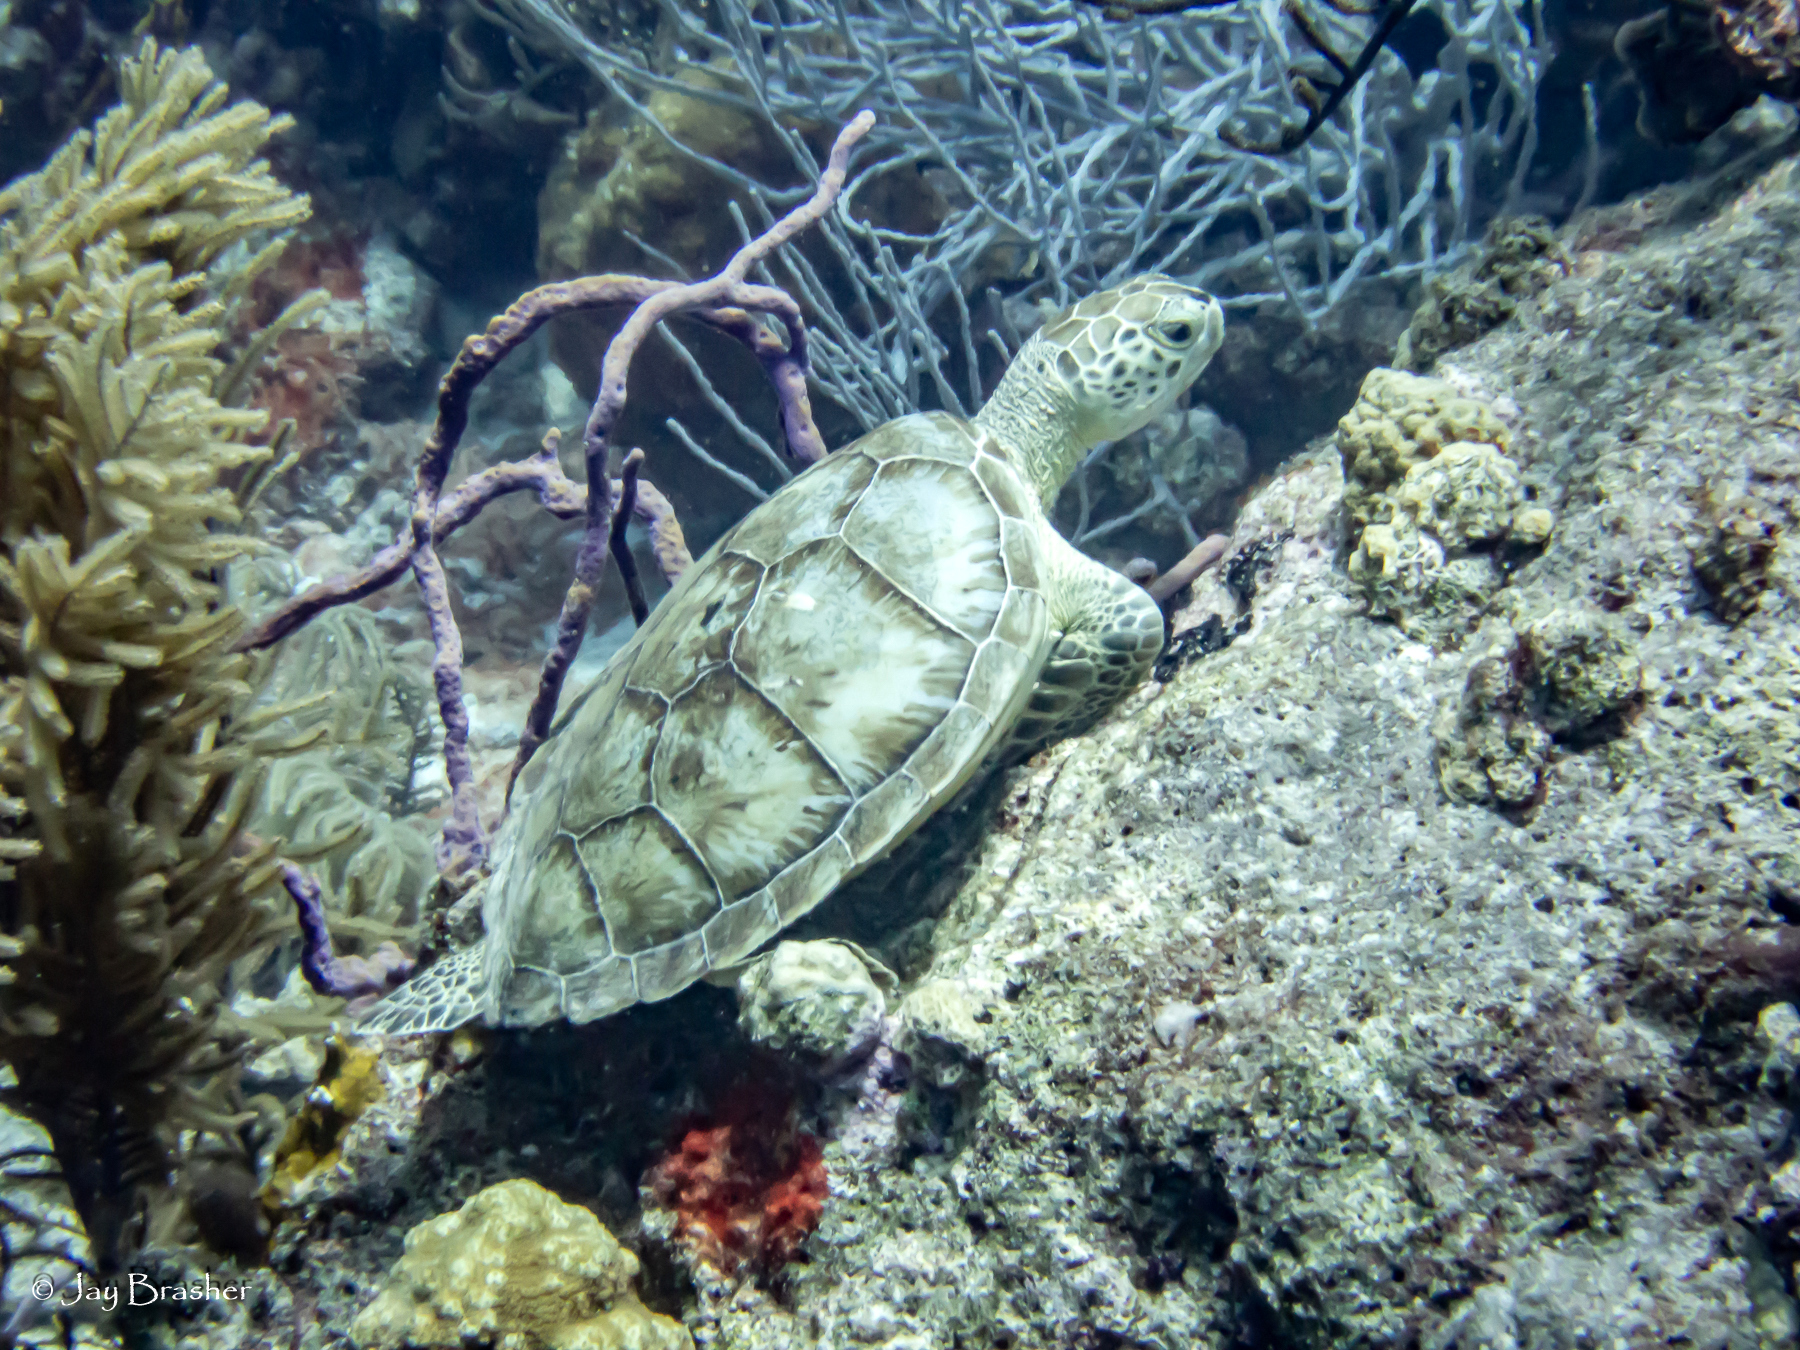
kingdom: Animalia
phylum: Chordata
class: Testudines
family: Cheloniidae
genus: Chelonia
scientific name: Chelonia mydas
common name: Green turtle
